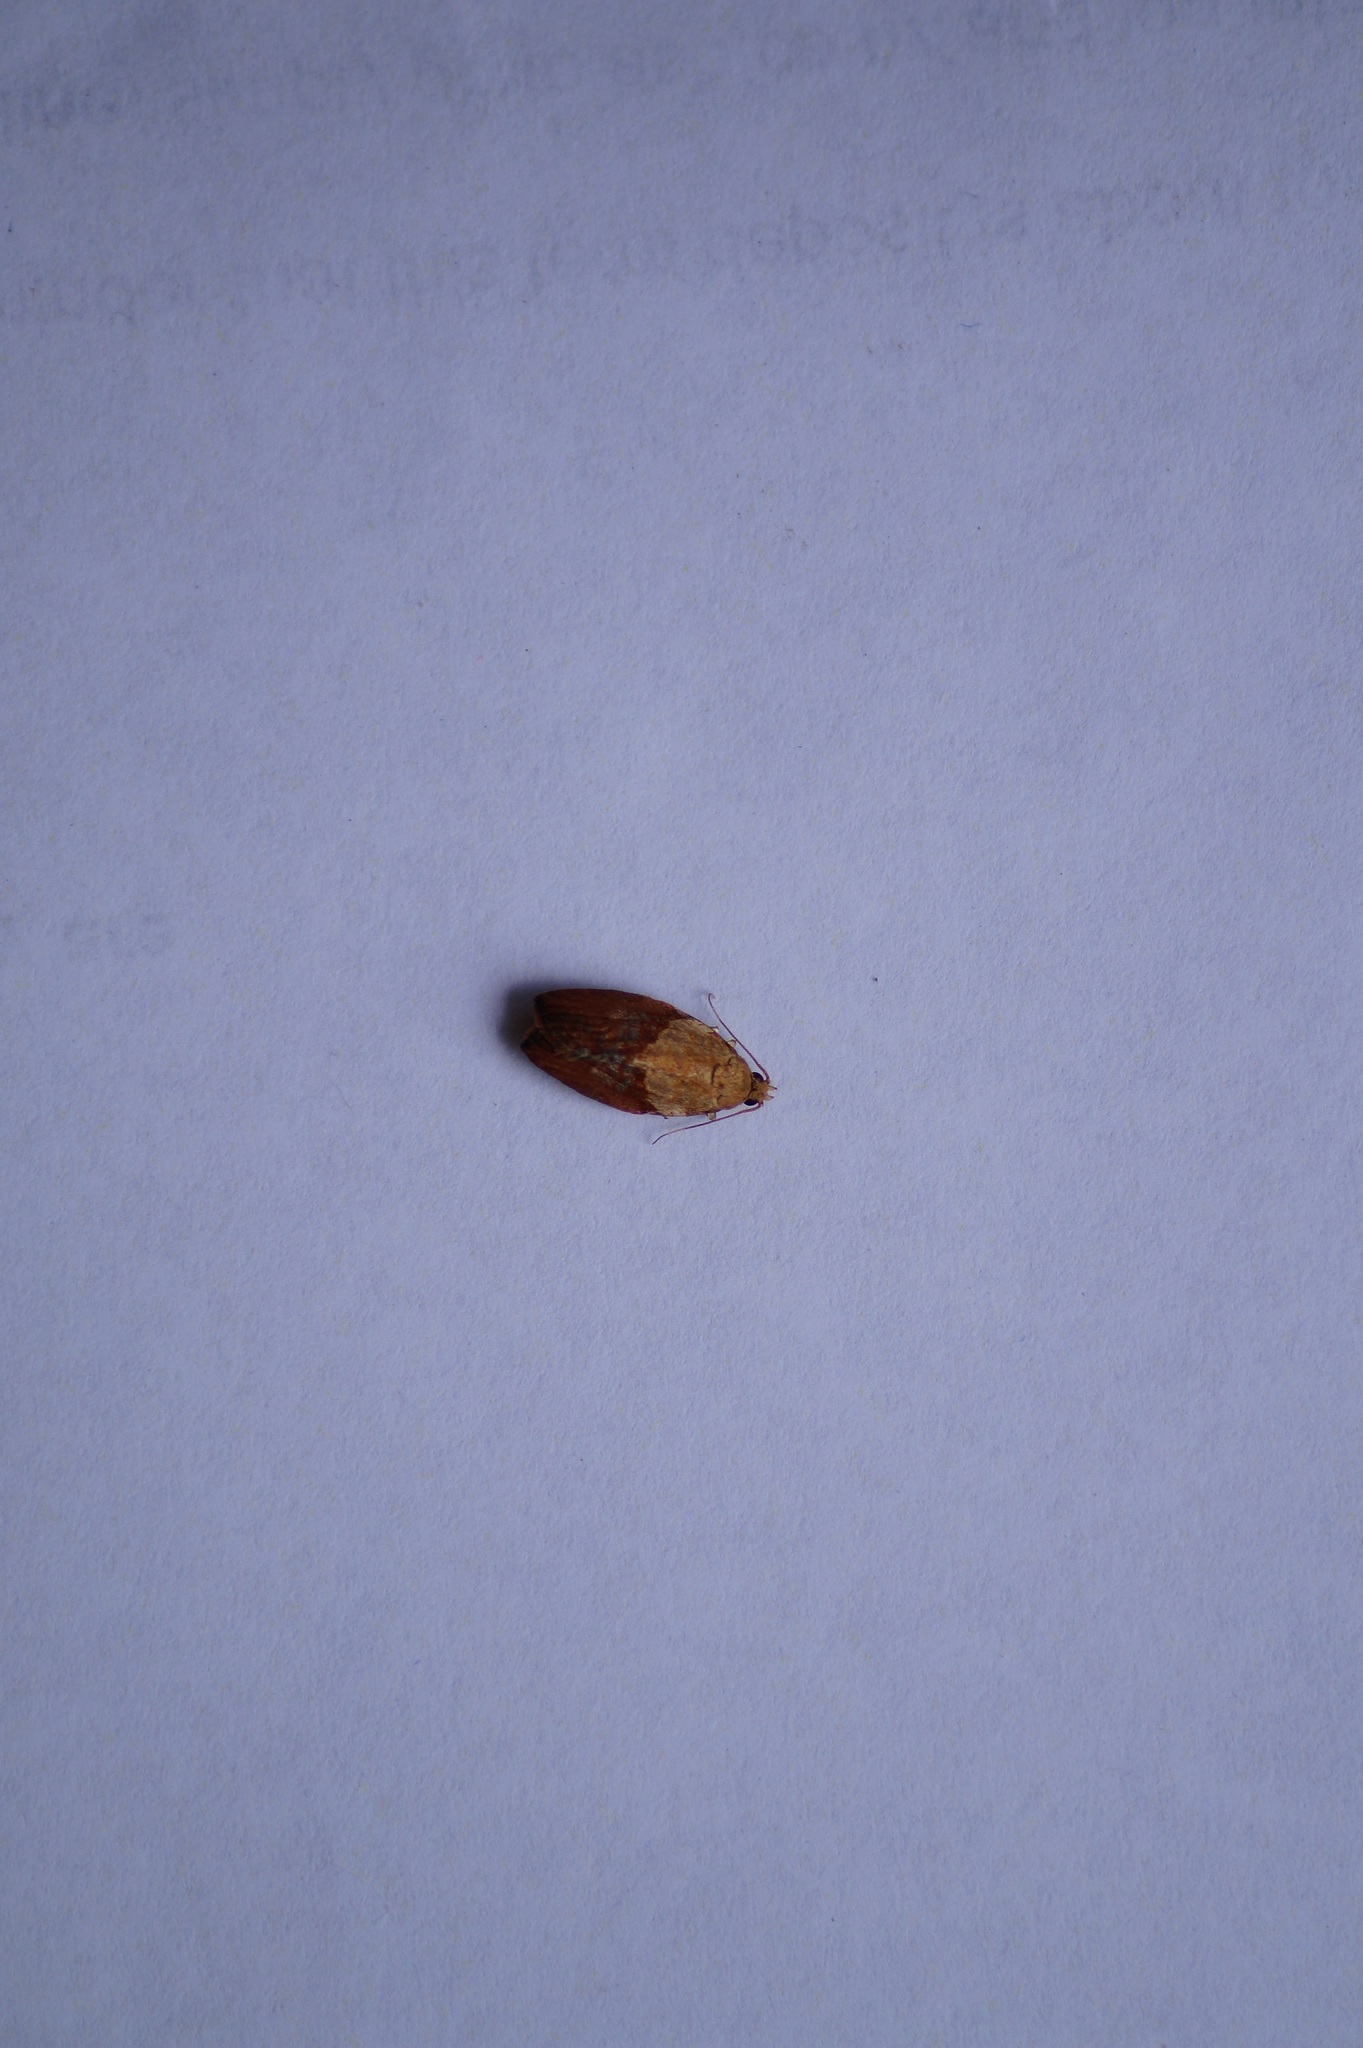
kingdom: Animalia
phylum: Arthropoda
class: Insecta
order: Lepidoptera
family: Tortricidae
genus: Epiphyas
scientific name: Epiphyas postvittana
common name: Light brown apple moth
